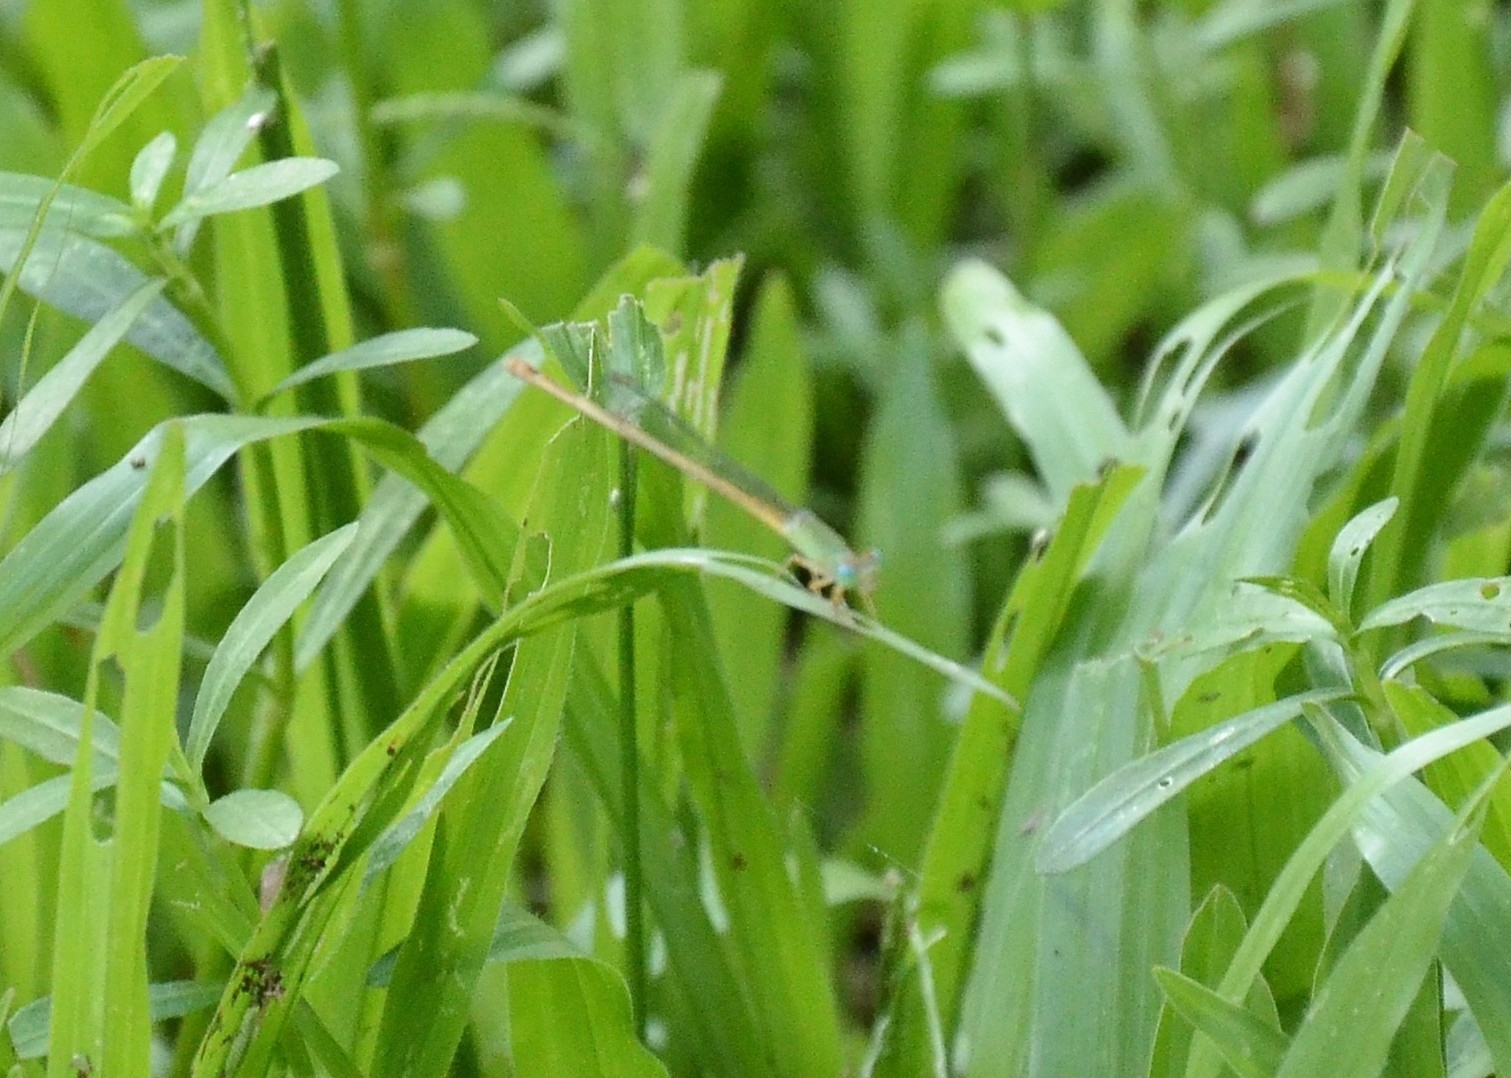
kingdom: Animalia
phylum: Arthropoda
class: Insecta
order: Odonata
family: Coenagrionidae
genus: Ceriagrion
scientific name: Ceriagrion coromandelianum
